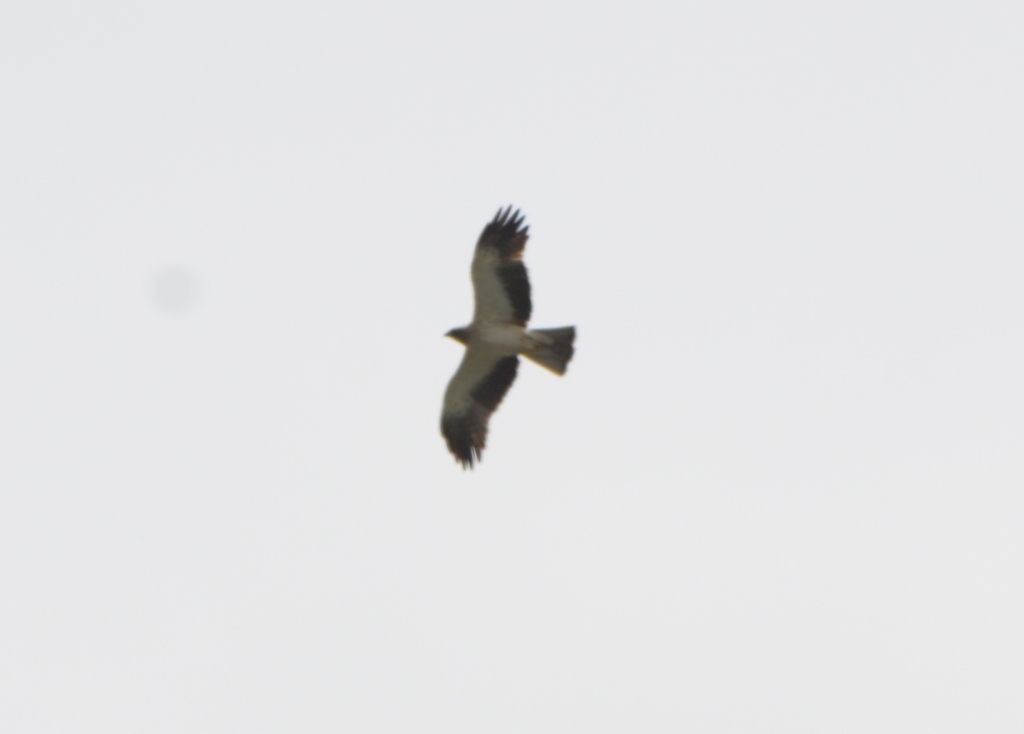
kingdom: Animalia
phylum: Chordata
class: Aves
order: Accipitriformes
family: Accipitridae
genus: Hieraaetus
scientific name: Hieraaetus pennatus
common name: Booted eagle
